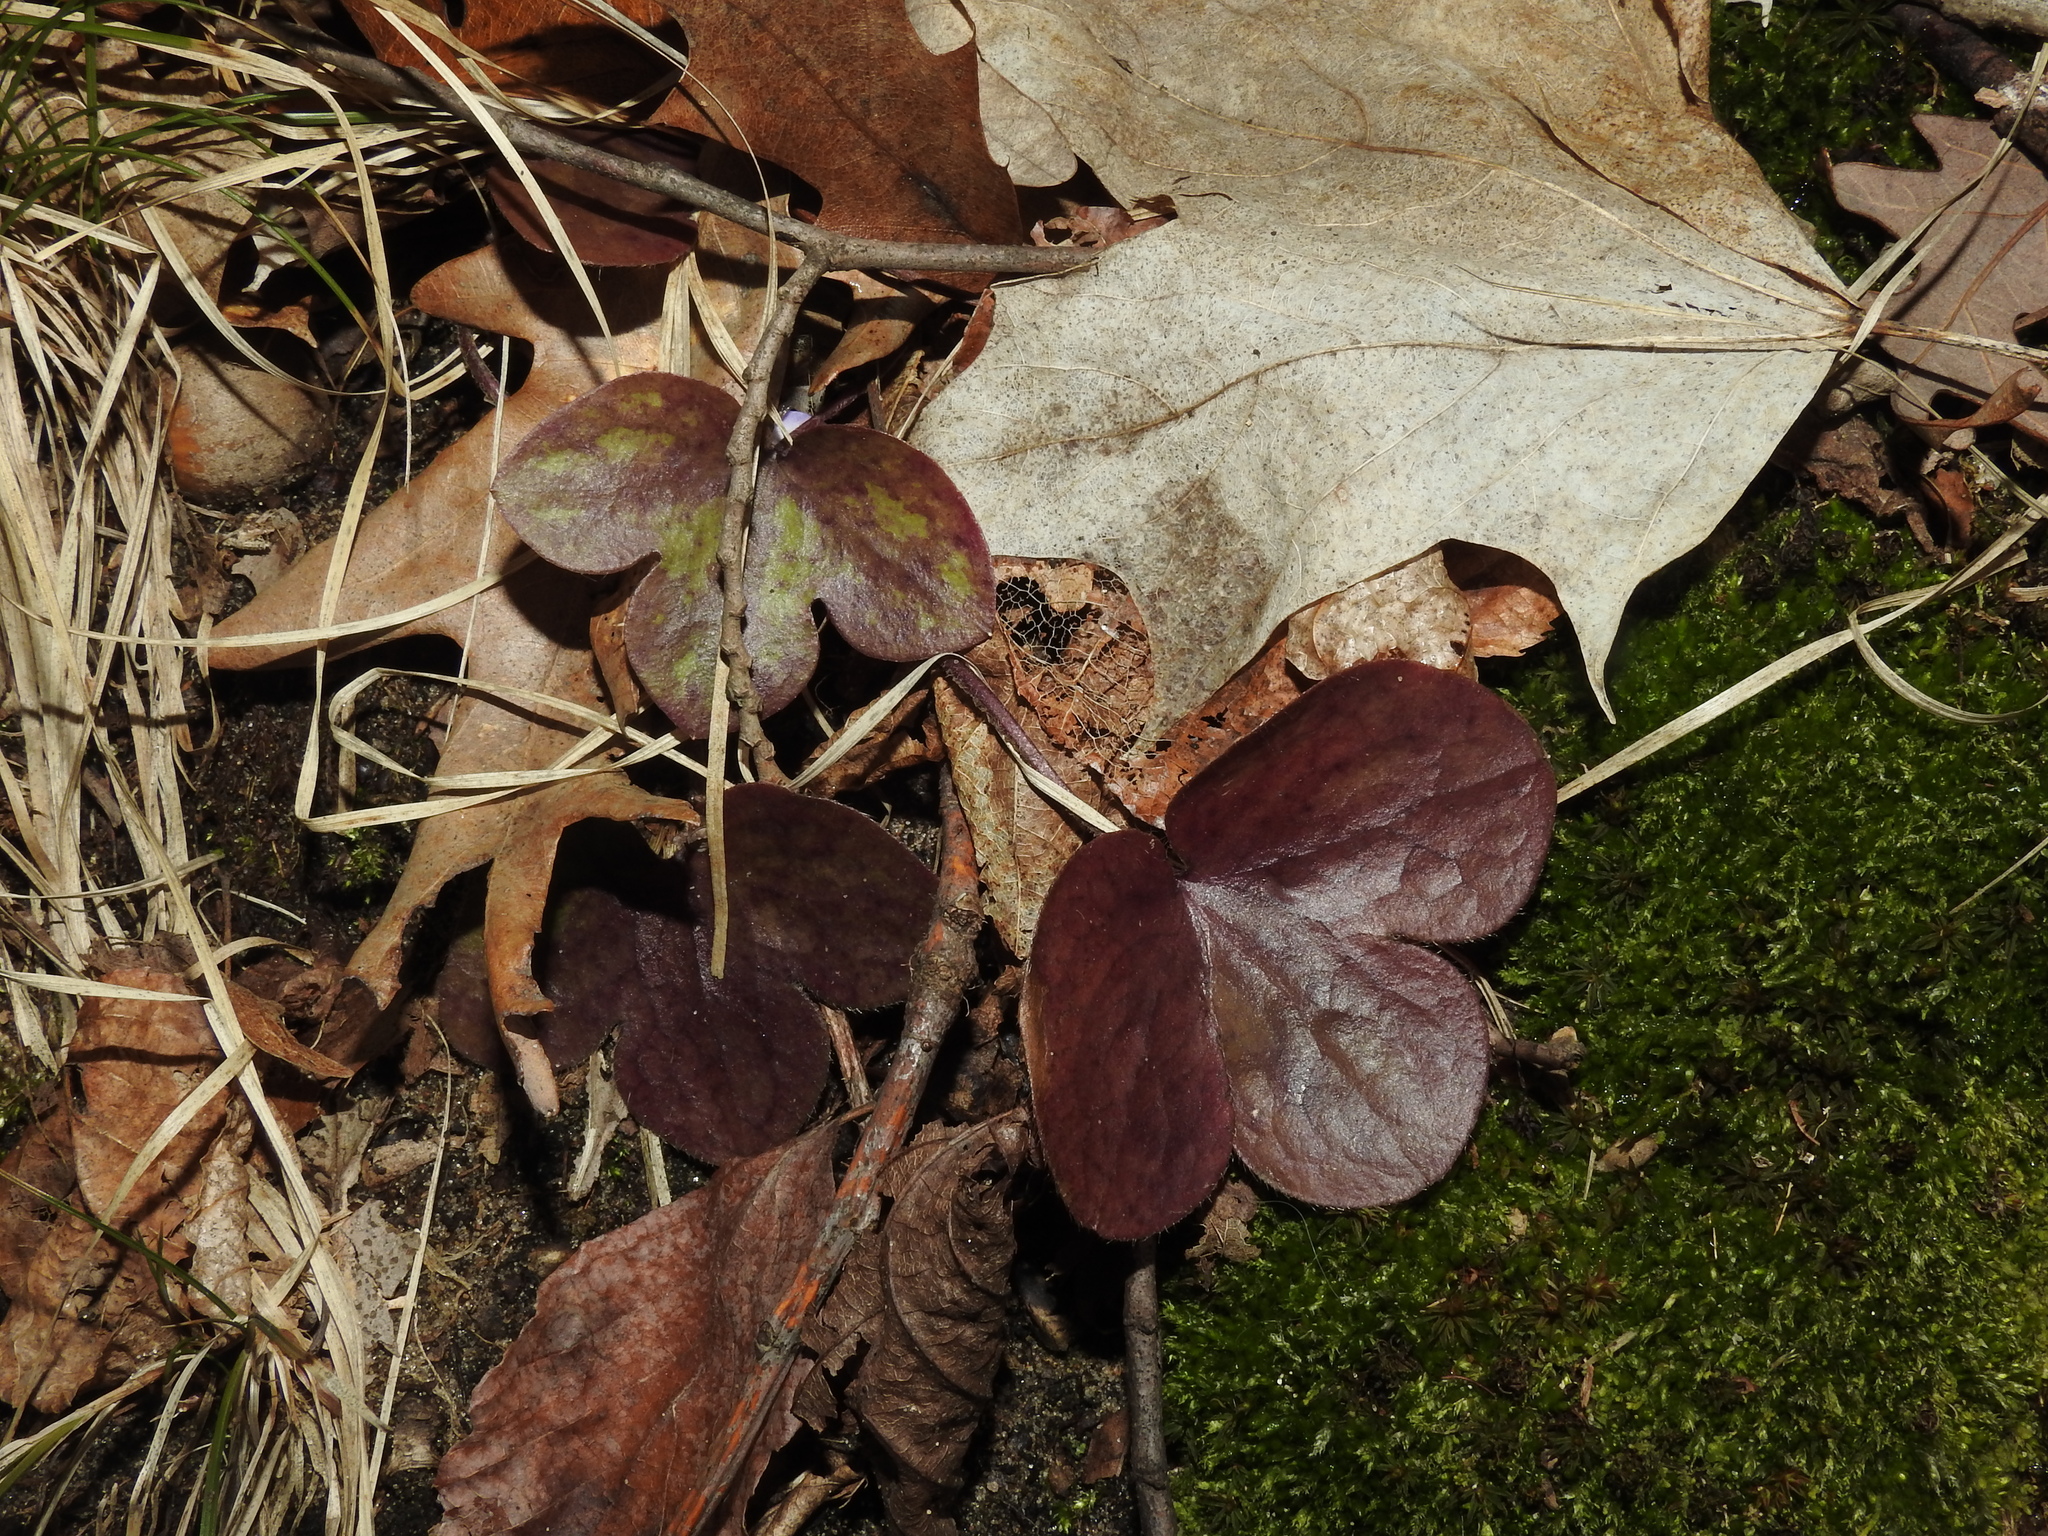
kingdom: Plantae
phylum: Tracheophyta
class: Magnoliopsida
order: Ranunculales
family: Ranunculaceae
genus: Hepatica
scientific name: Hepatica americana
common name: American hepatica
